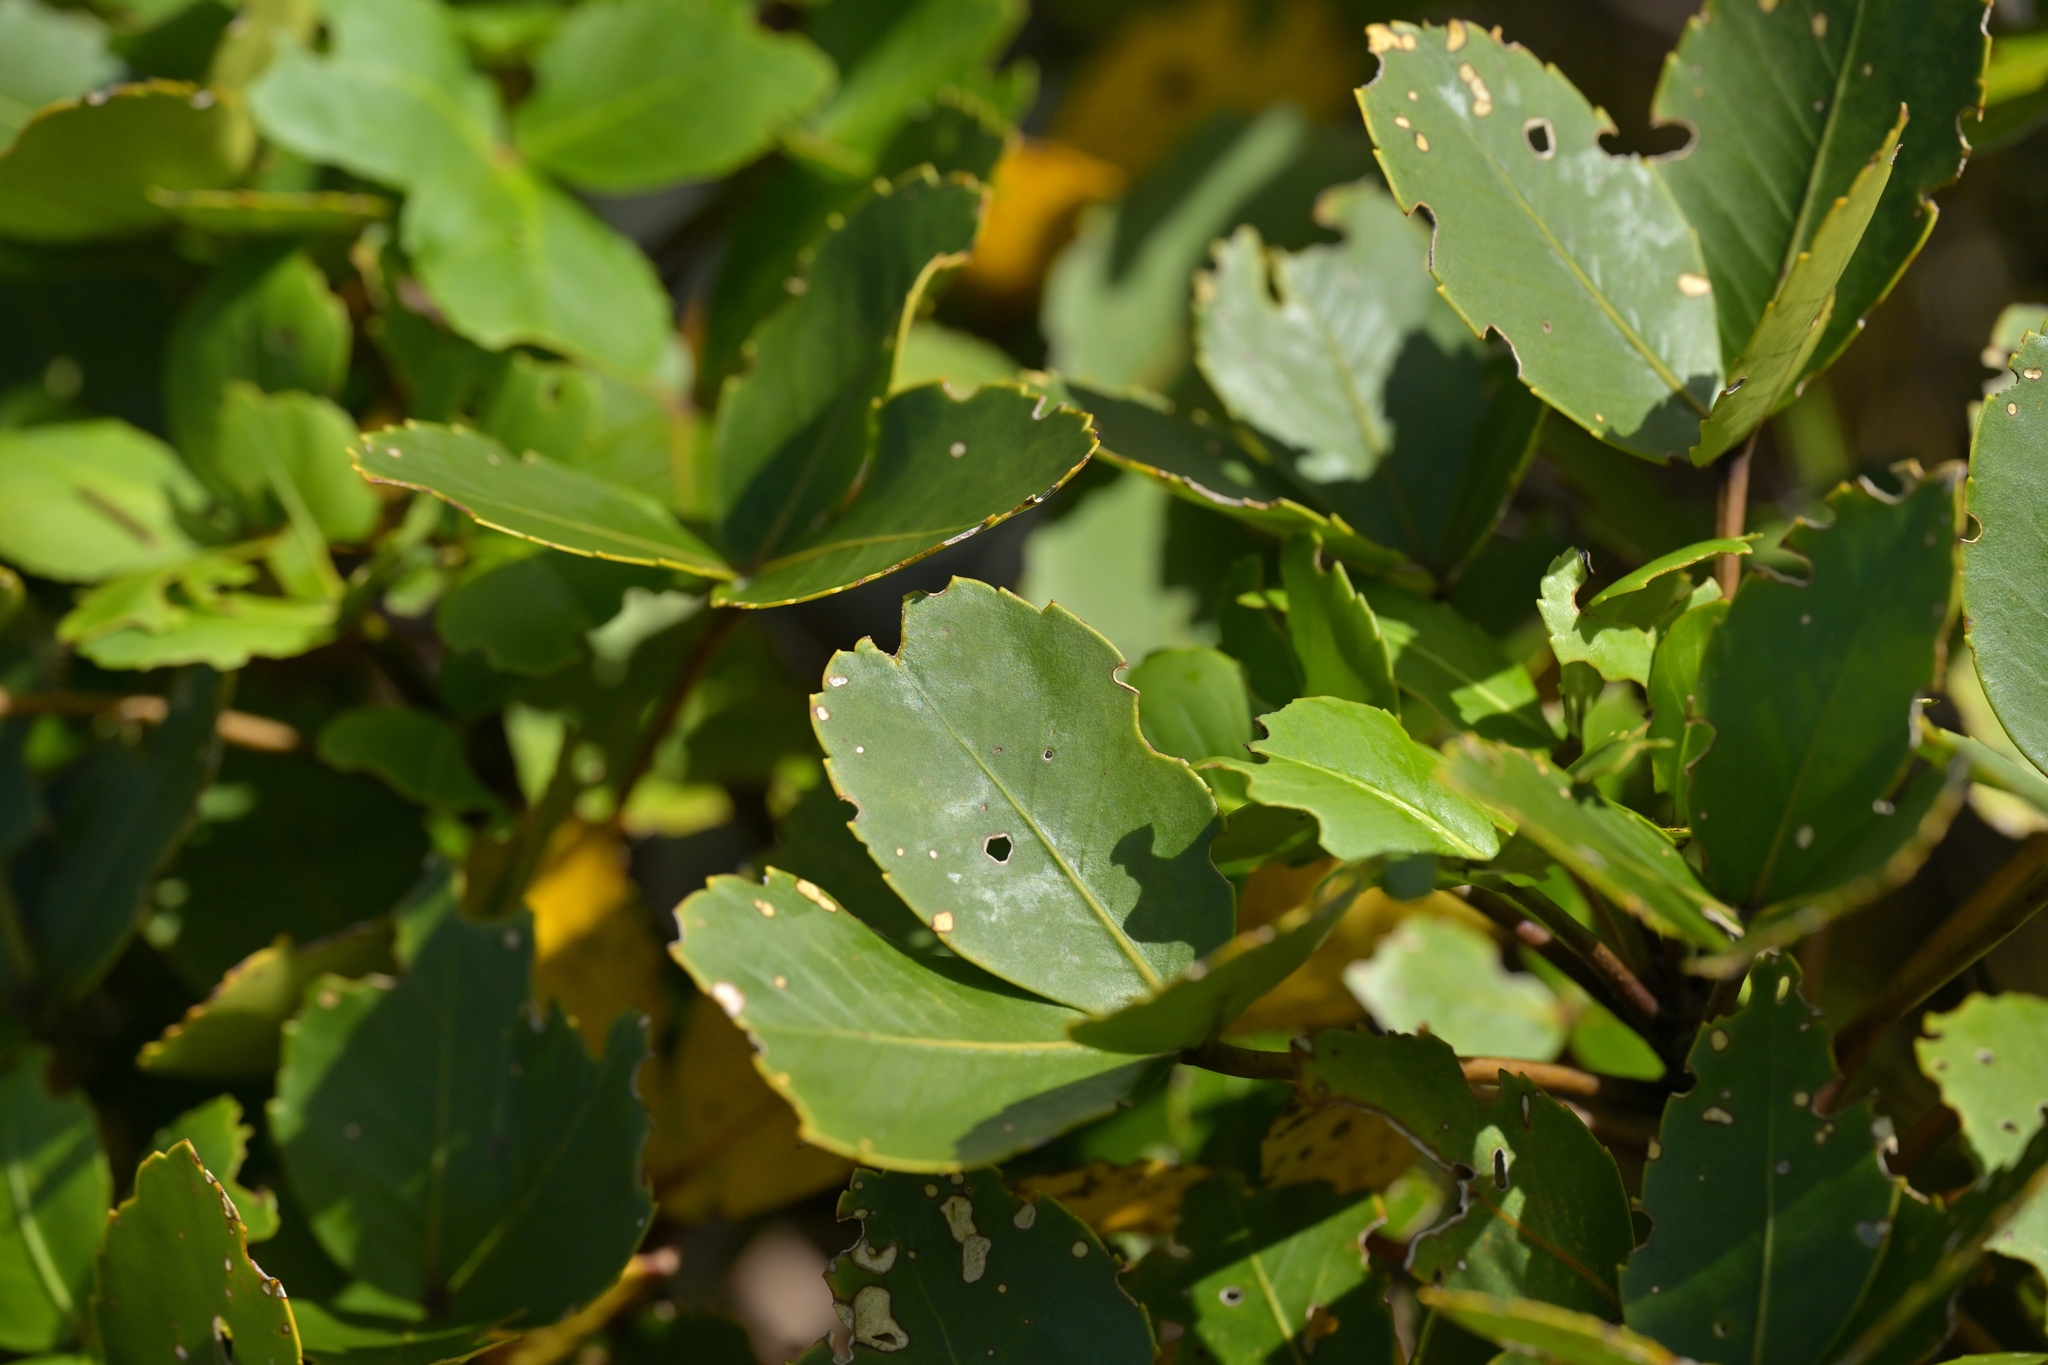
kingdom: Plantae
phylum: Tracheophyta
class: Magnoliopsida
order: Apiales
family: Araliaceae
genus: Neopanax
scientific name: Neopanax colensoi
